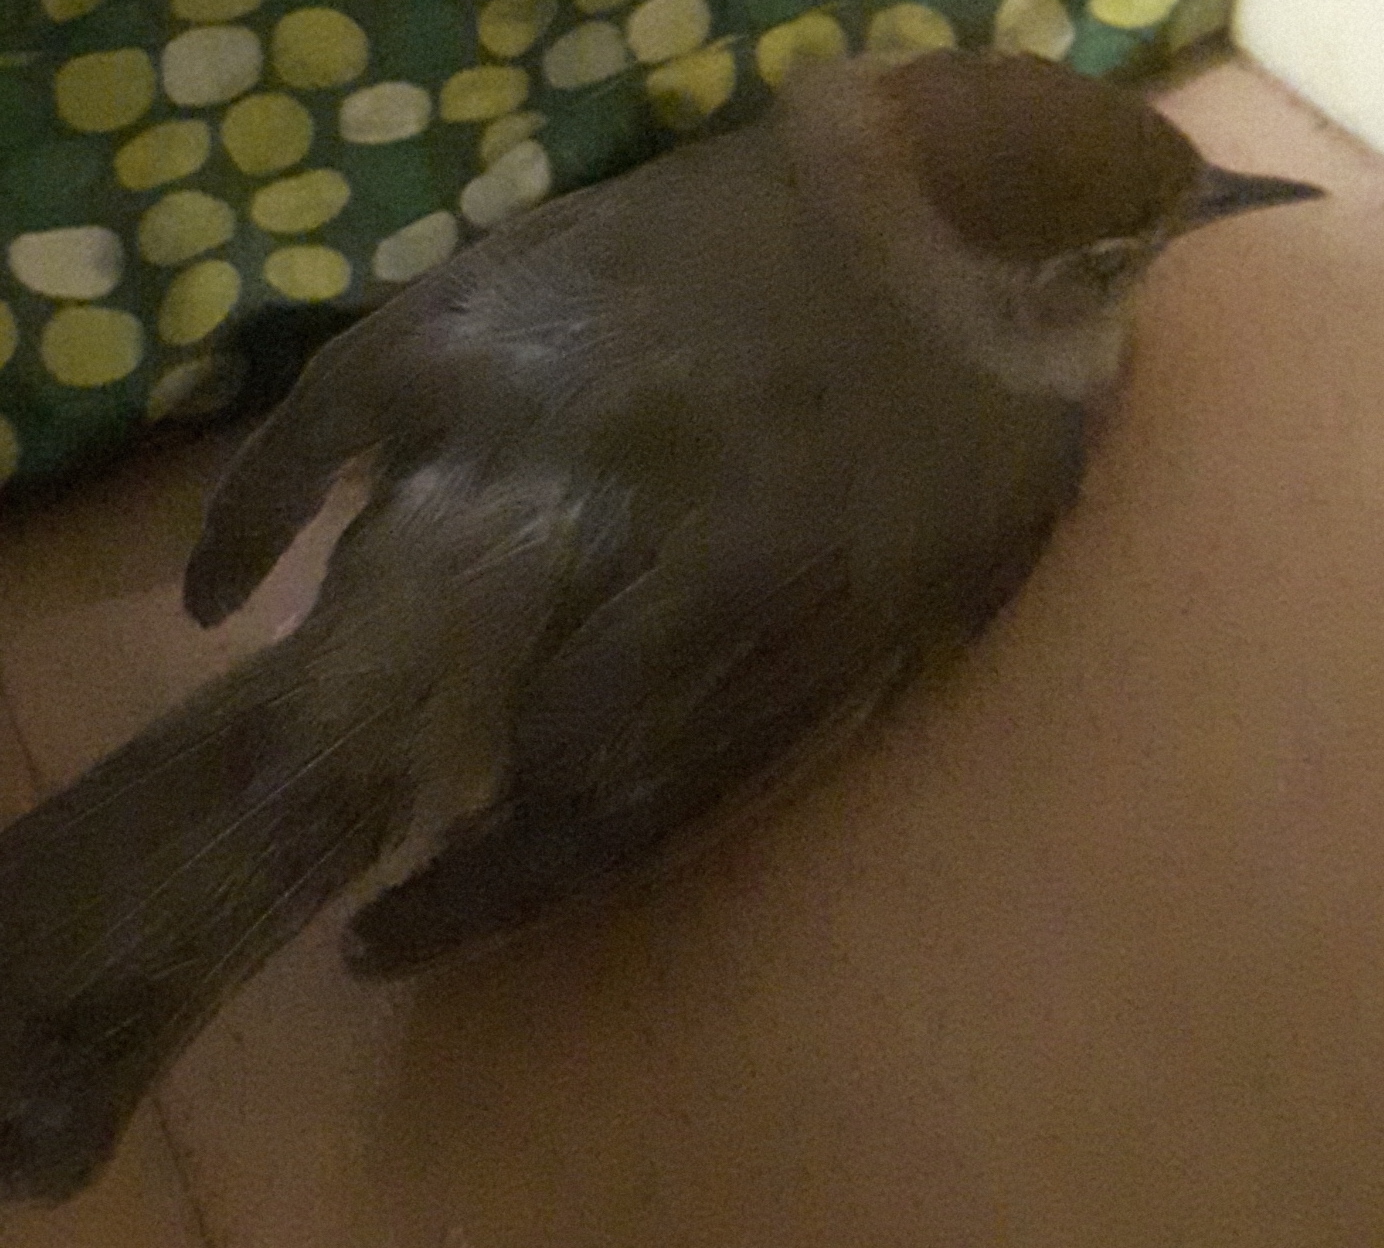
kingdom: Animalia
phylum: Chordata
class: Aves
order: Passeriformes
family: Sylviidae
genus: Sylvia
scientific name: Sylvia atricapilla
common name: Eurasian blackcap
